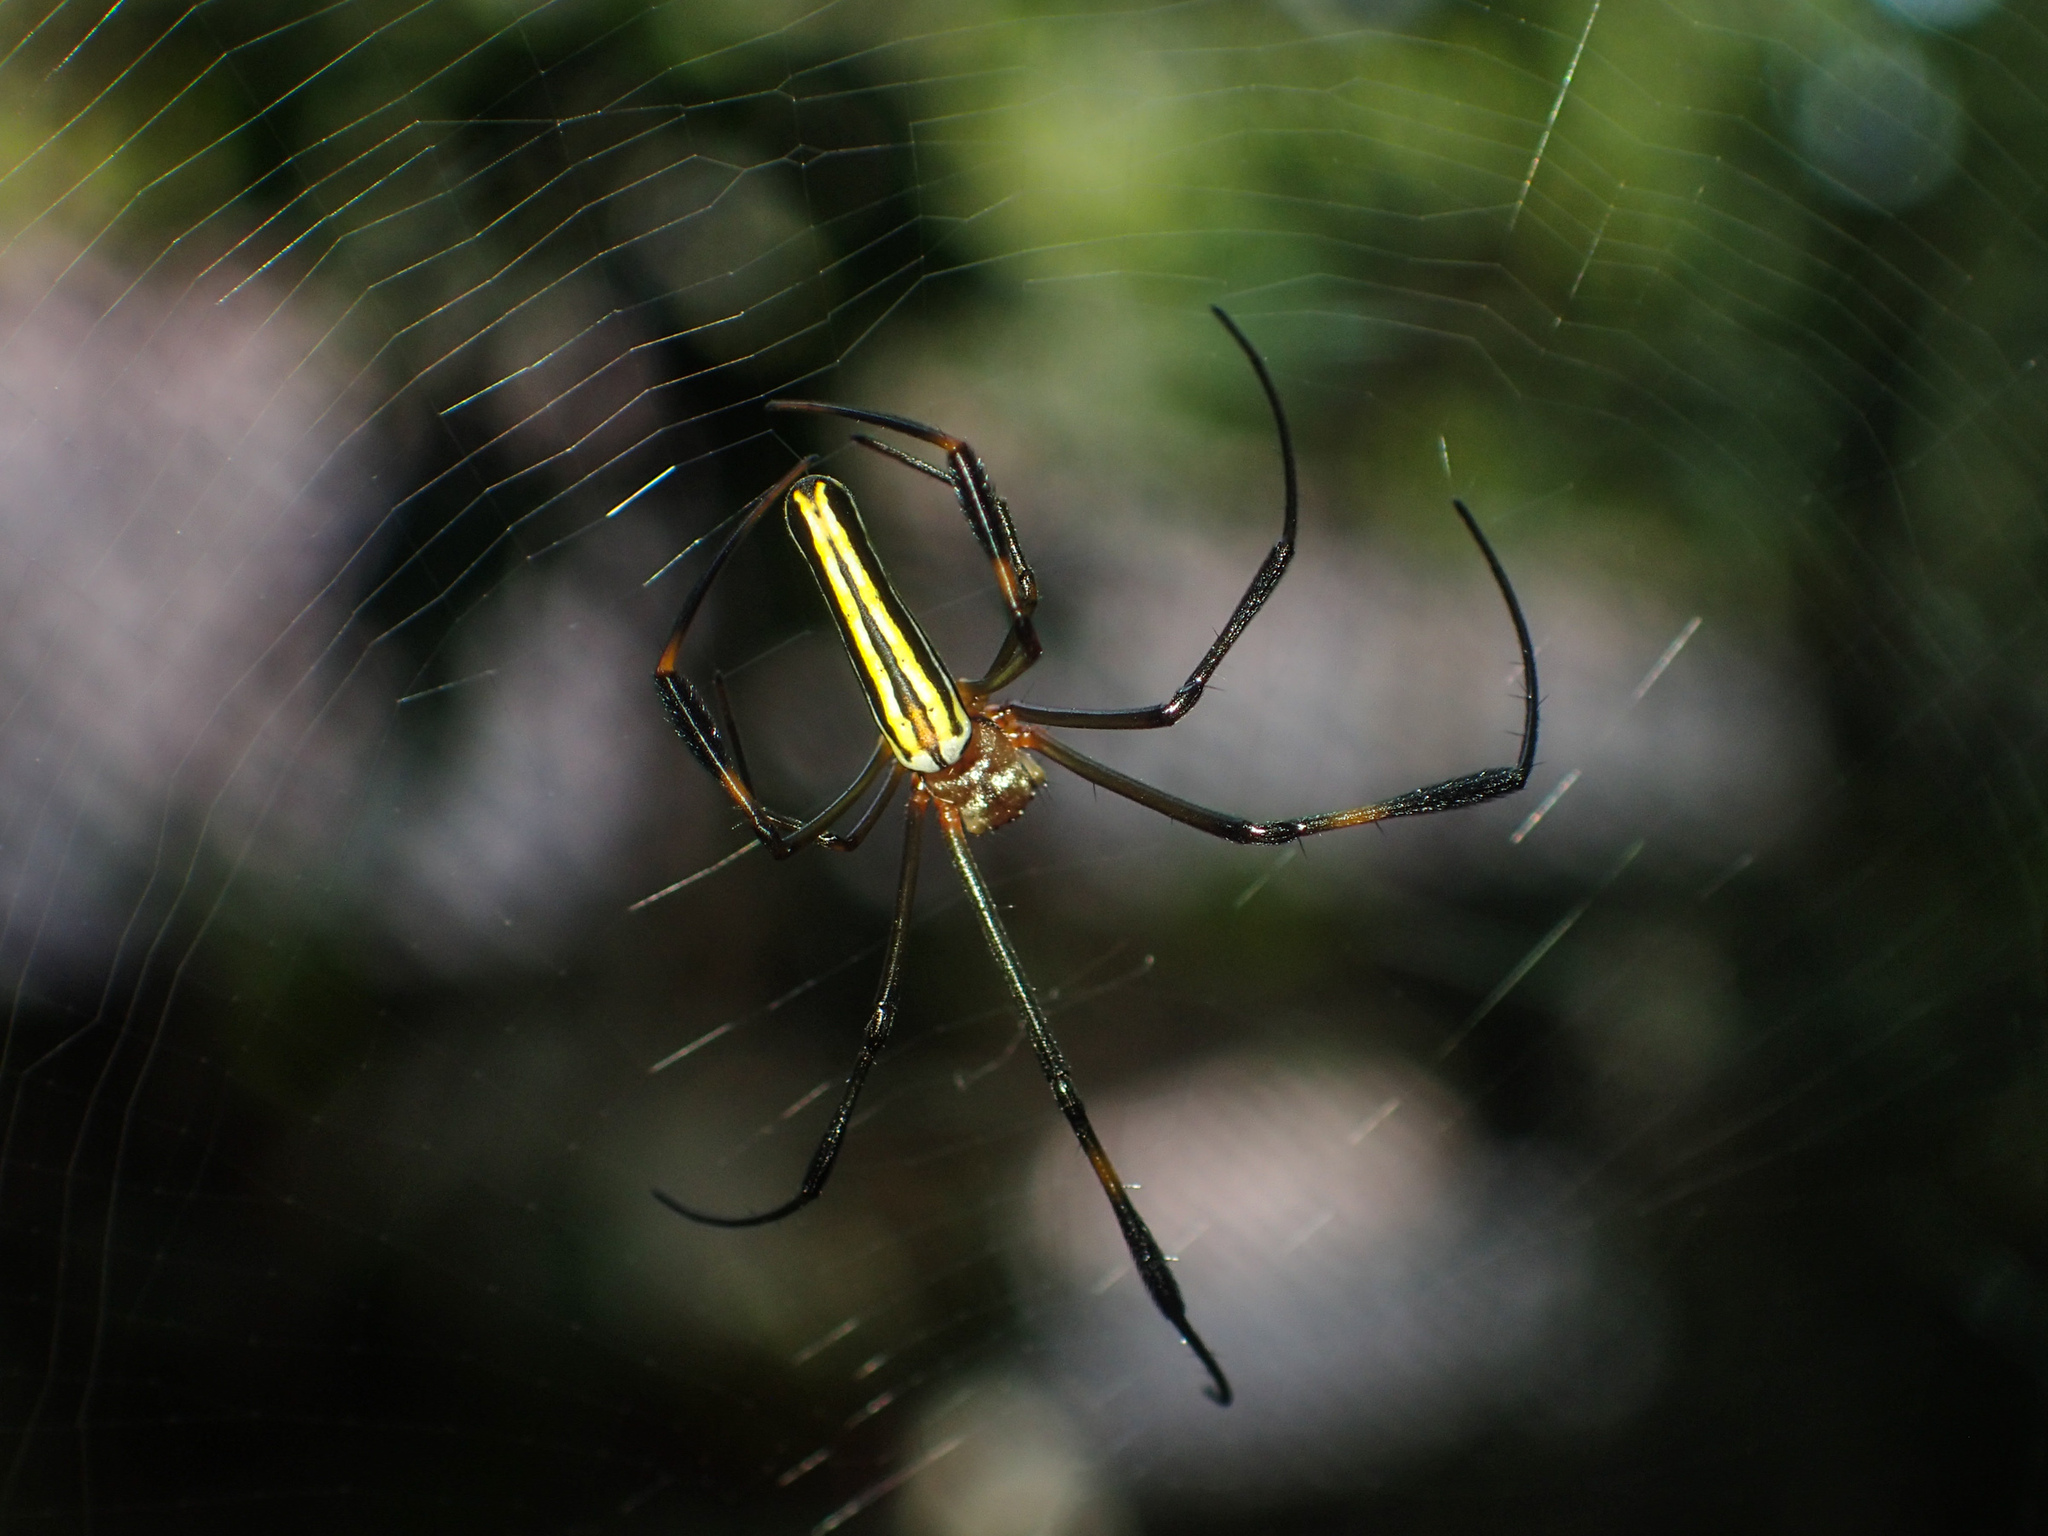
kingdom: Animalia
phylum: Arthropoda
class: Arachnida
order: Araneae
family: Araneidae
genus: Nephila
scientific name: Nephila pilipes
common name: Giant golden orb weaver
